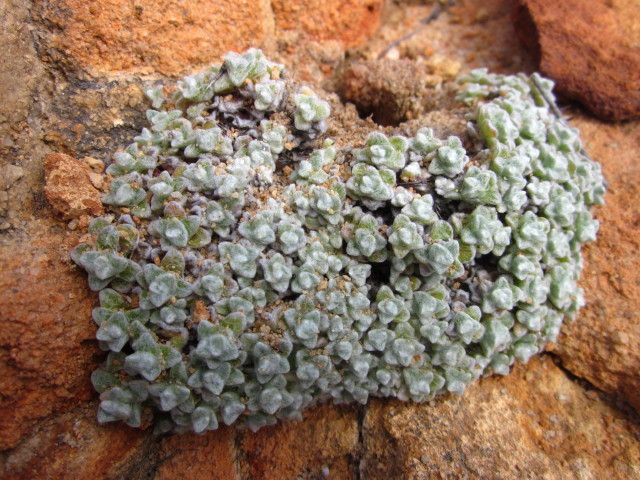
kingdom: Plantae
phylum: Tracheophyta
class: Magnoliopsida
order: Asterales
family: Asteraceae
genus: Helichrysum
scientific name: Helichrysum saxicola
